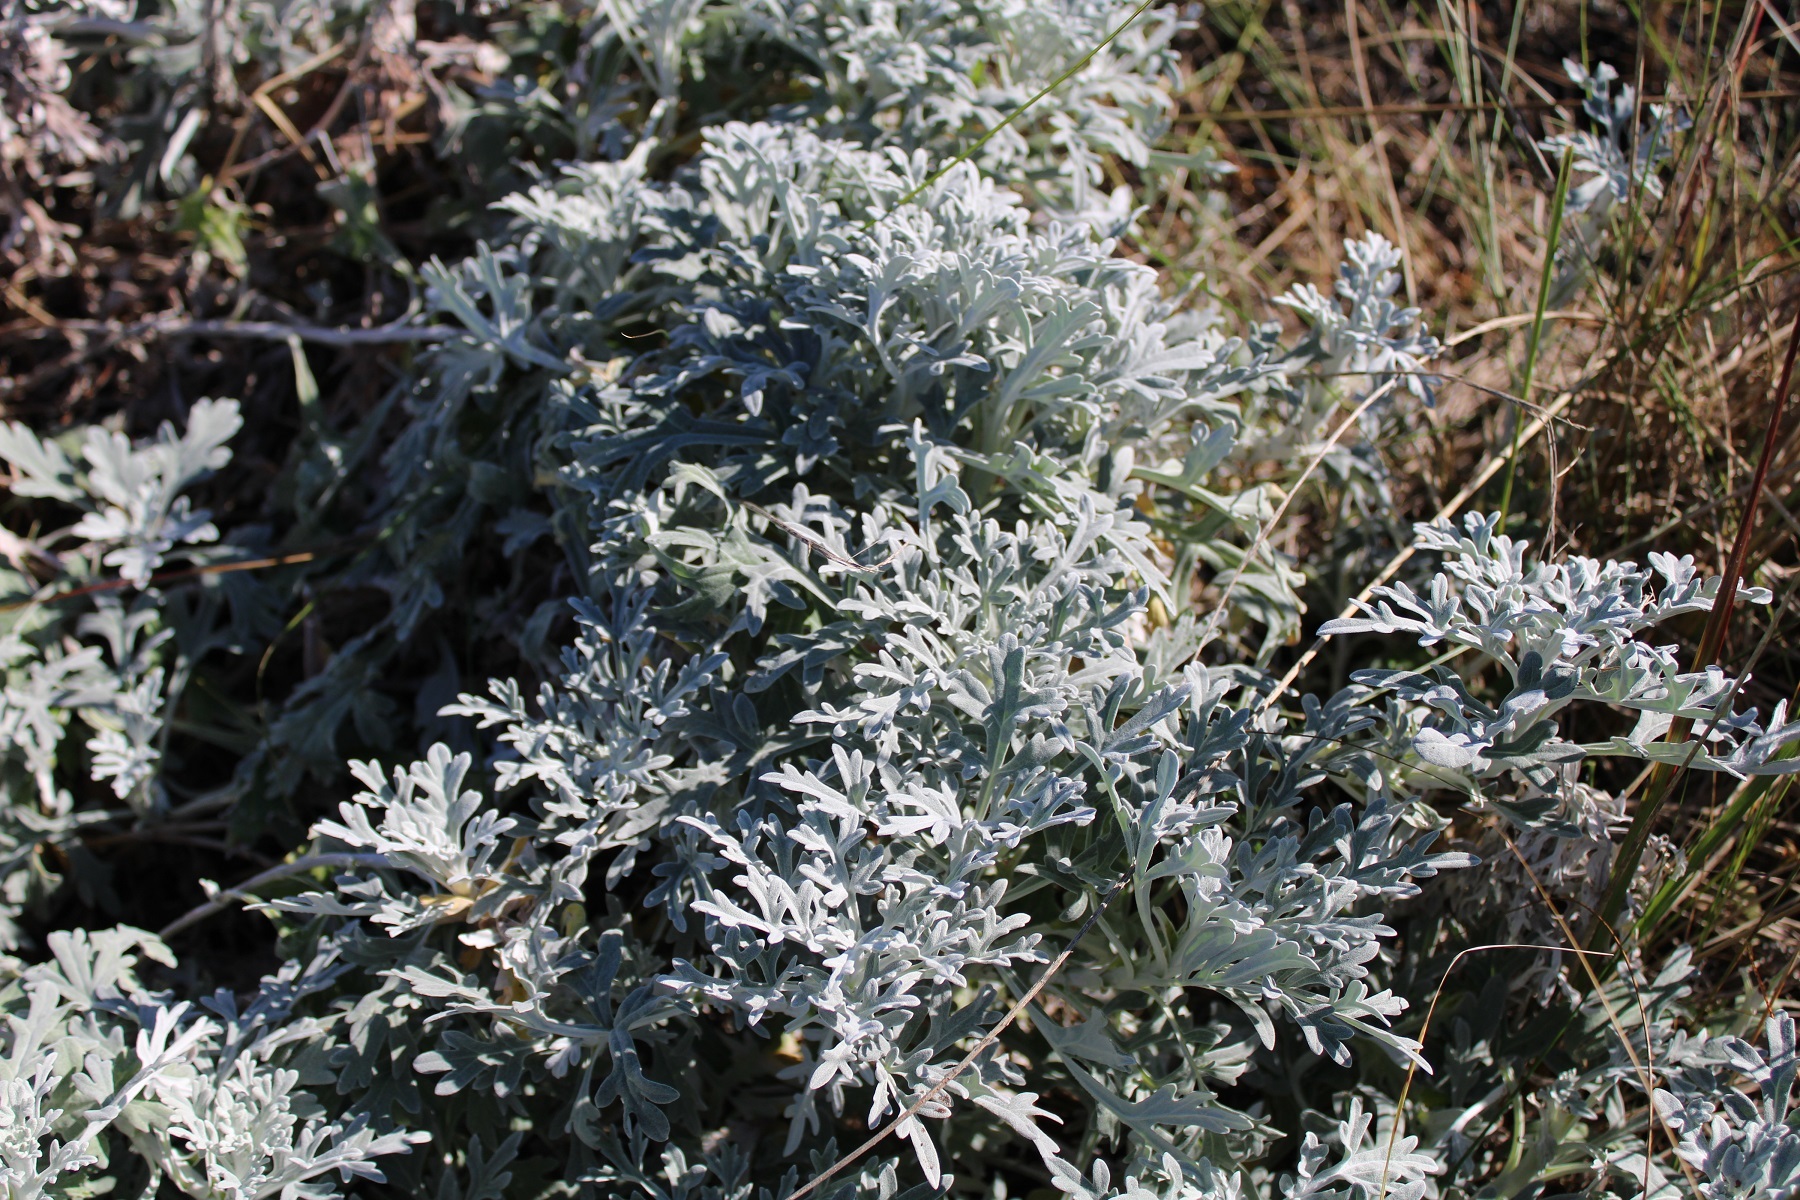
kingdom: Plantae
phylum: Tracheophyta
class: Magnoliopsida
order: Asterales
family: Asteraceae
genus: Artemisia
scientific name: Artemisia stelleriana
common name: Beach wormwood
